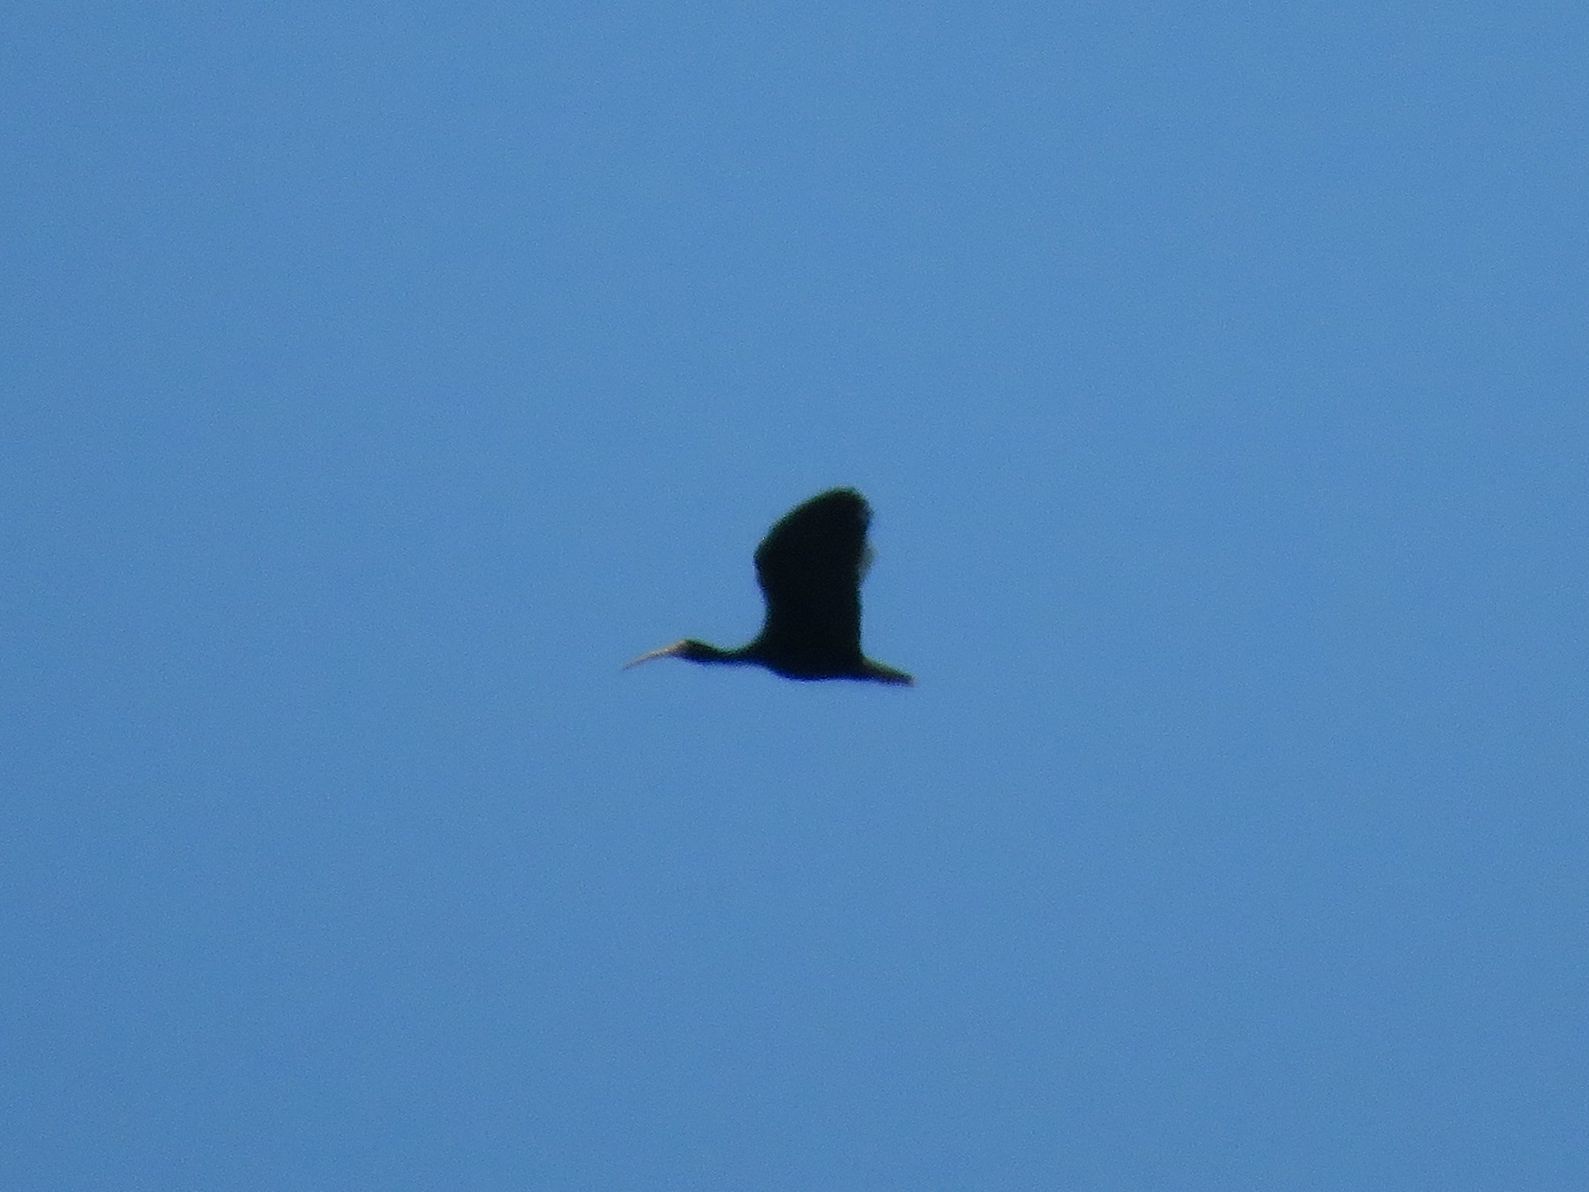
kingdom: Animalia
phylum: Chordata
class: Aves
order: Pelecaniformes
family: Threskiornithidae
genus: Phimosus
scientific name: Phimosus infuscatus
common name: Bare-faced ibis
